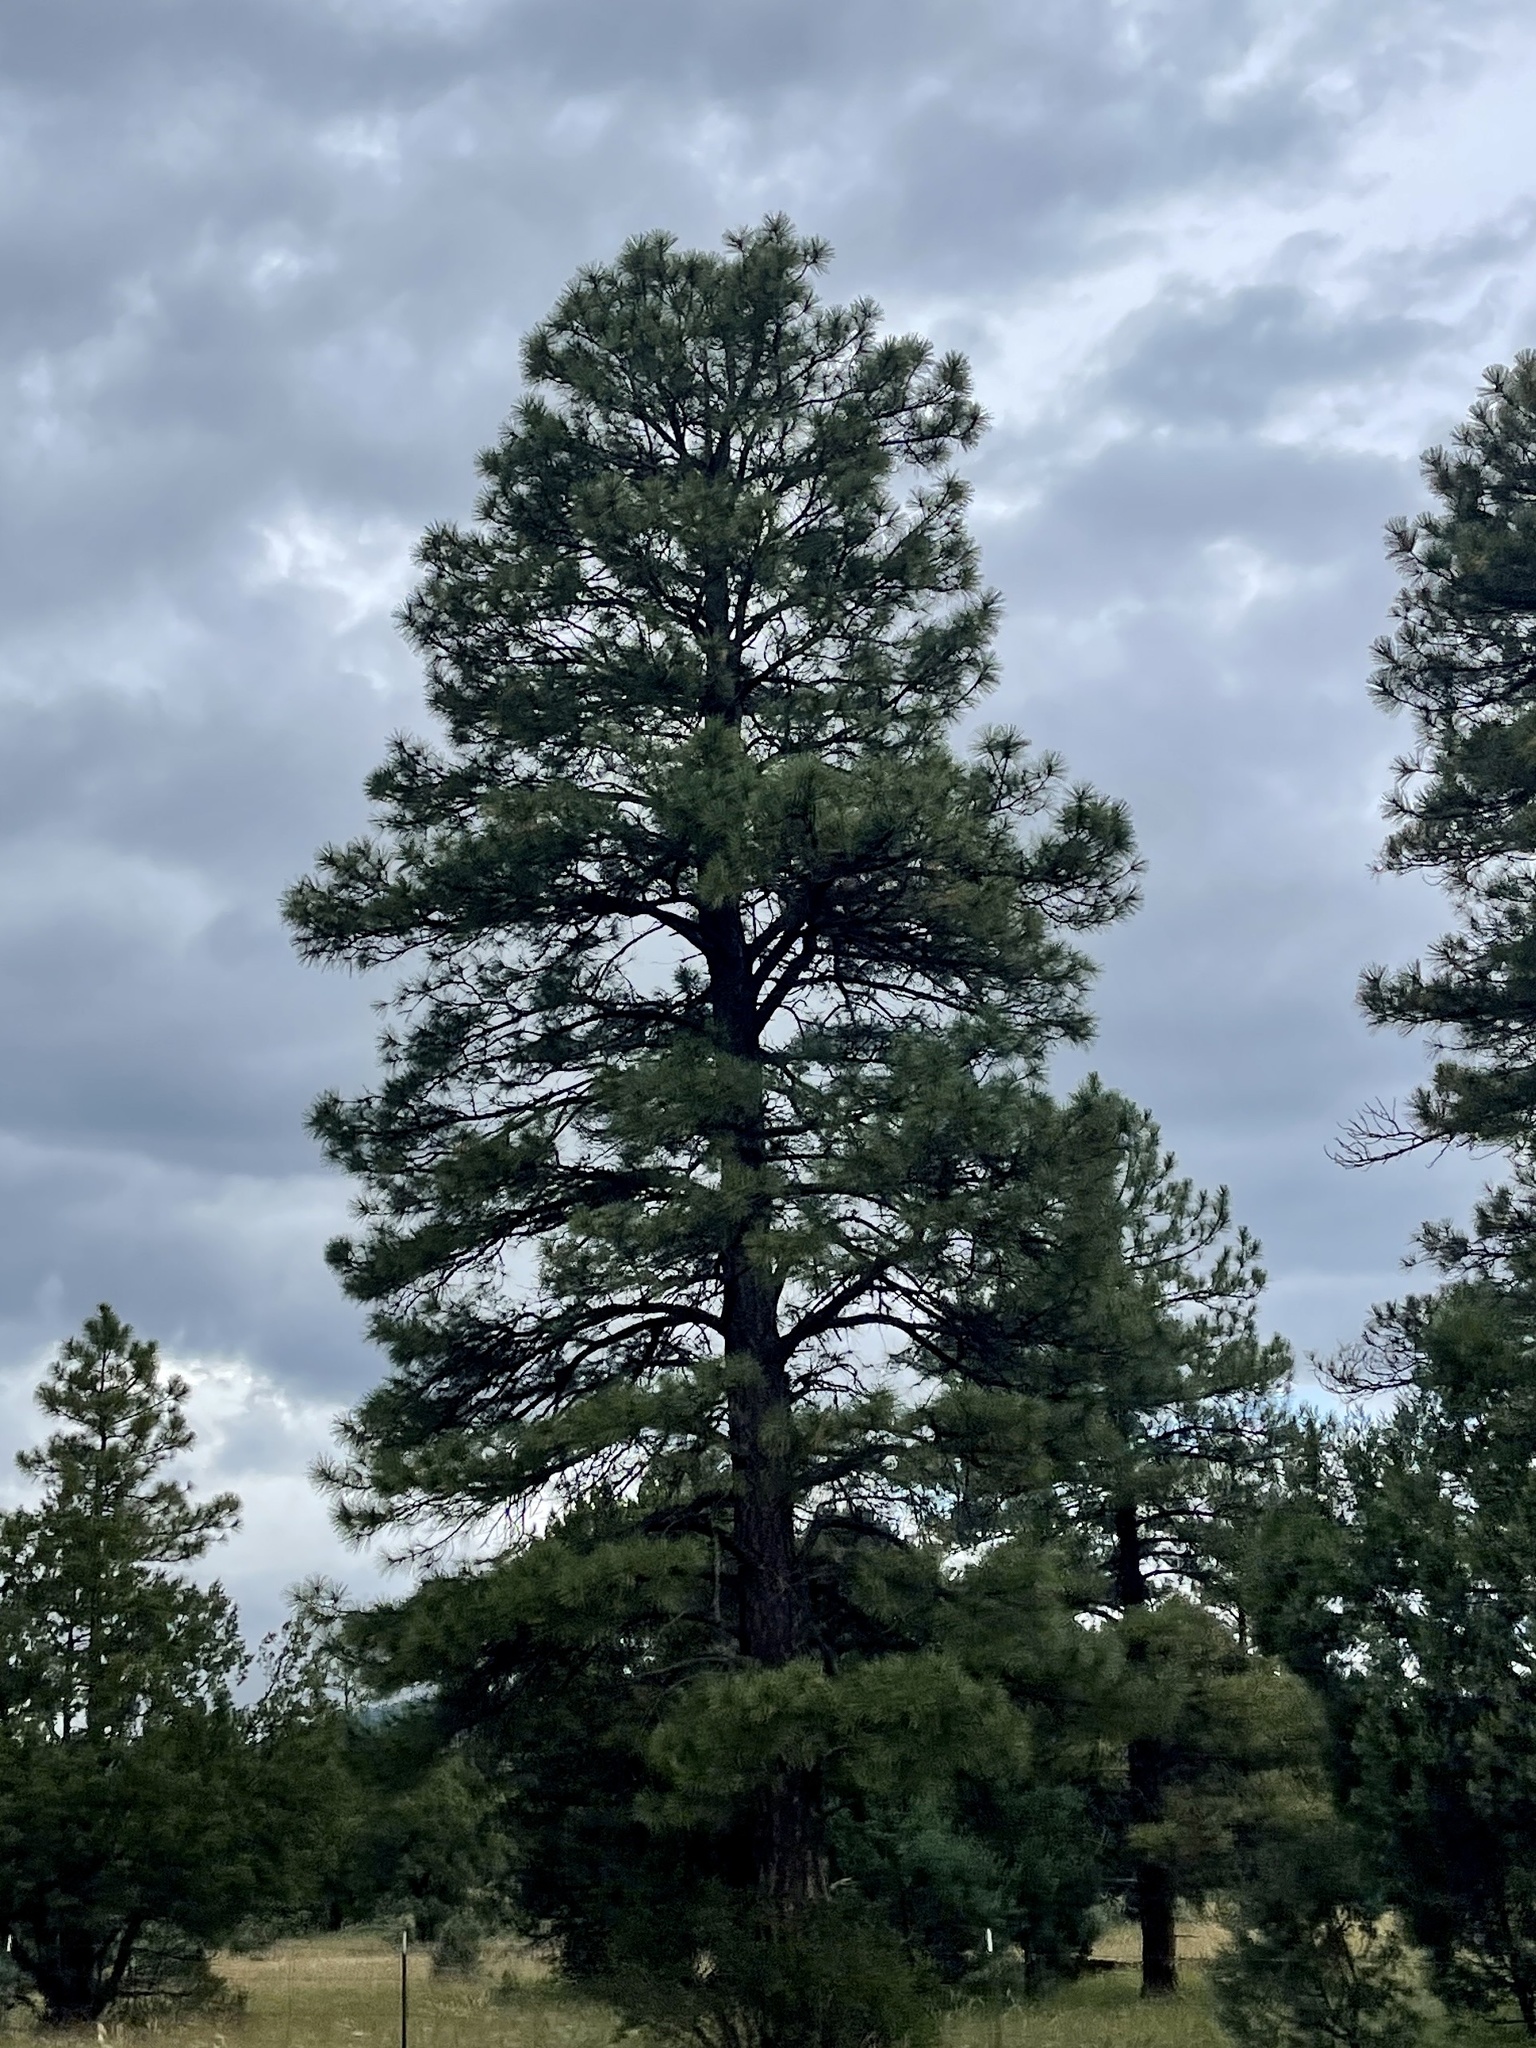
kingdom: Plantae
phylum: Tracheophyta
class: Pinopsida
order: Pinales
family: Pinaceae
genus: Pinus
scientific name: Pinus ponderosa
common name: Western yellow-pine
